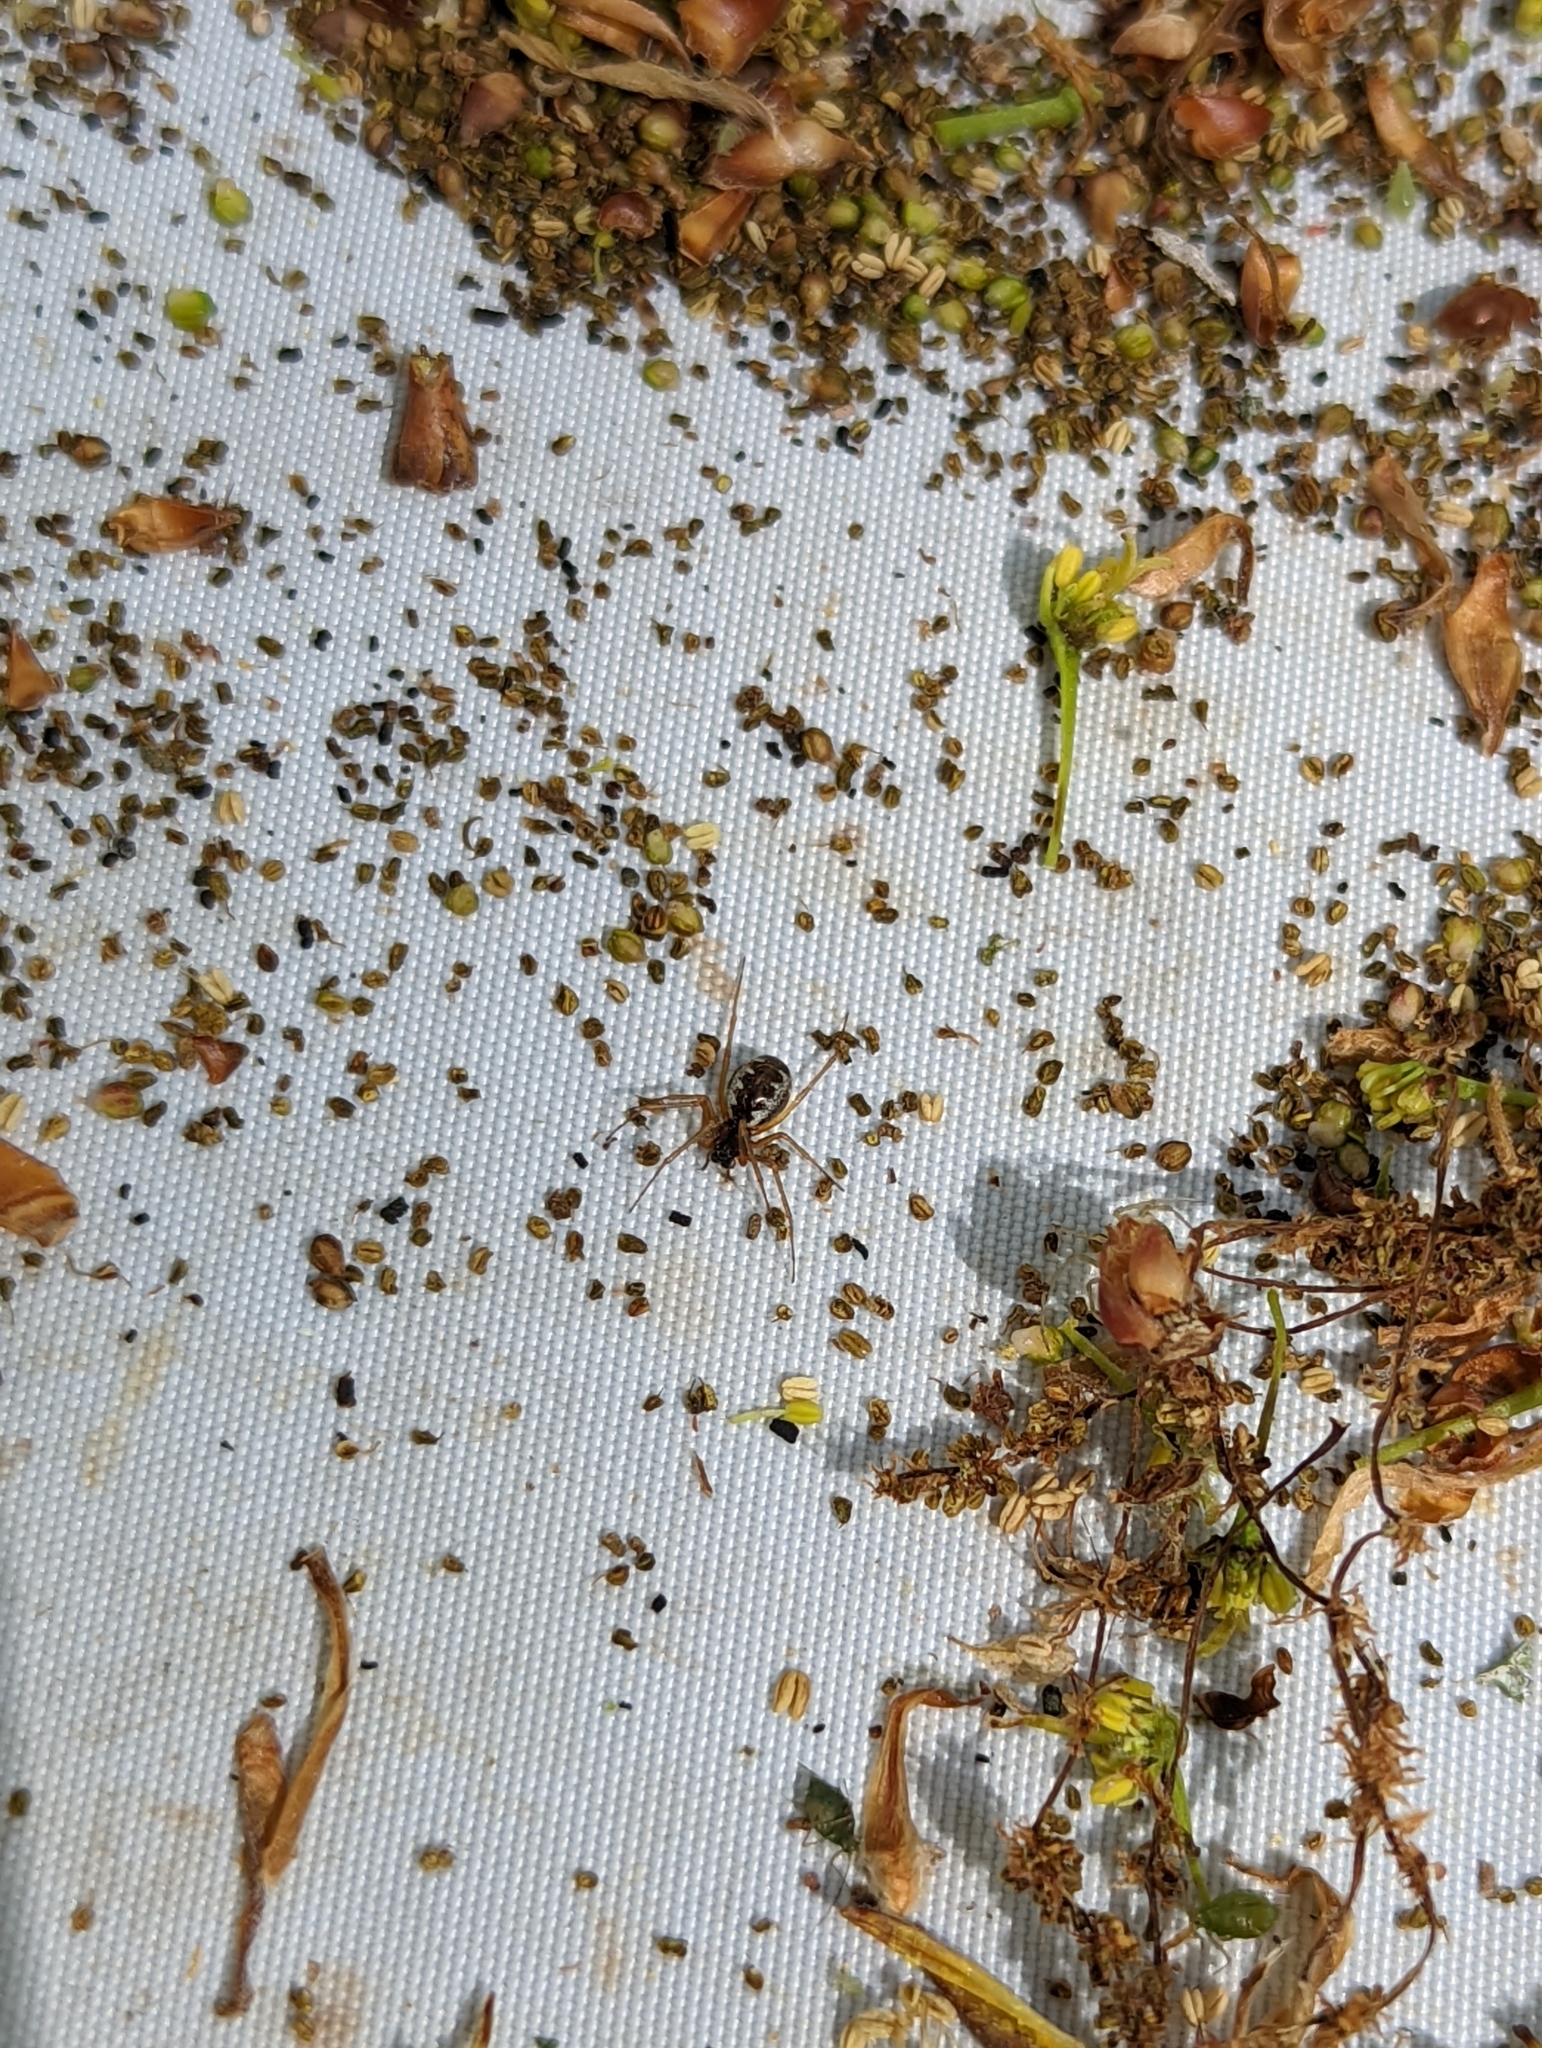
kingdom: Animalia
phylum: Arthropoda
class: Arachnida
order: Araneae
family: Linyphiidae
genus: Linyphia
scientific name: Linyphia hortensis
